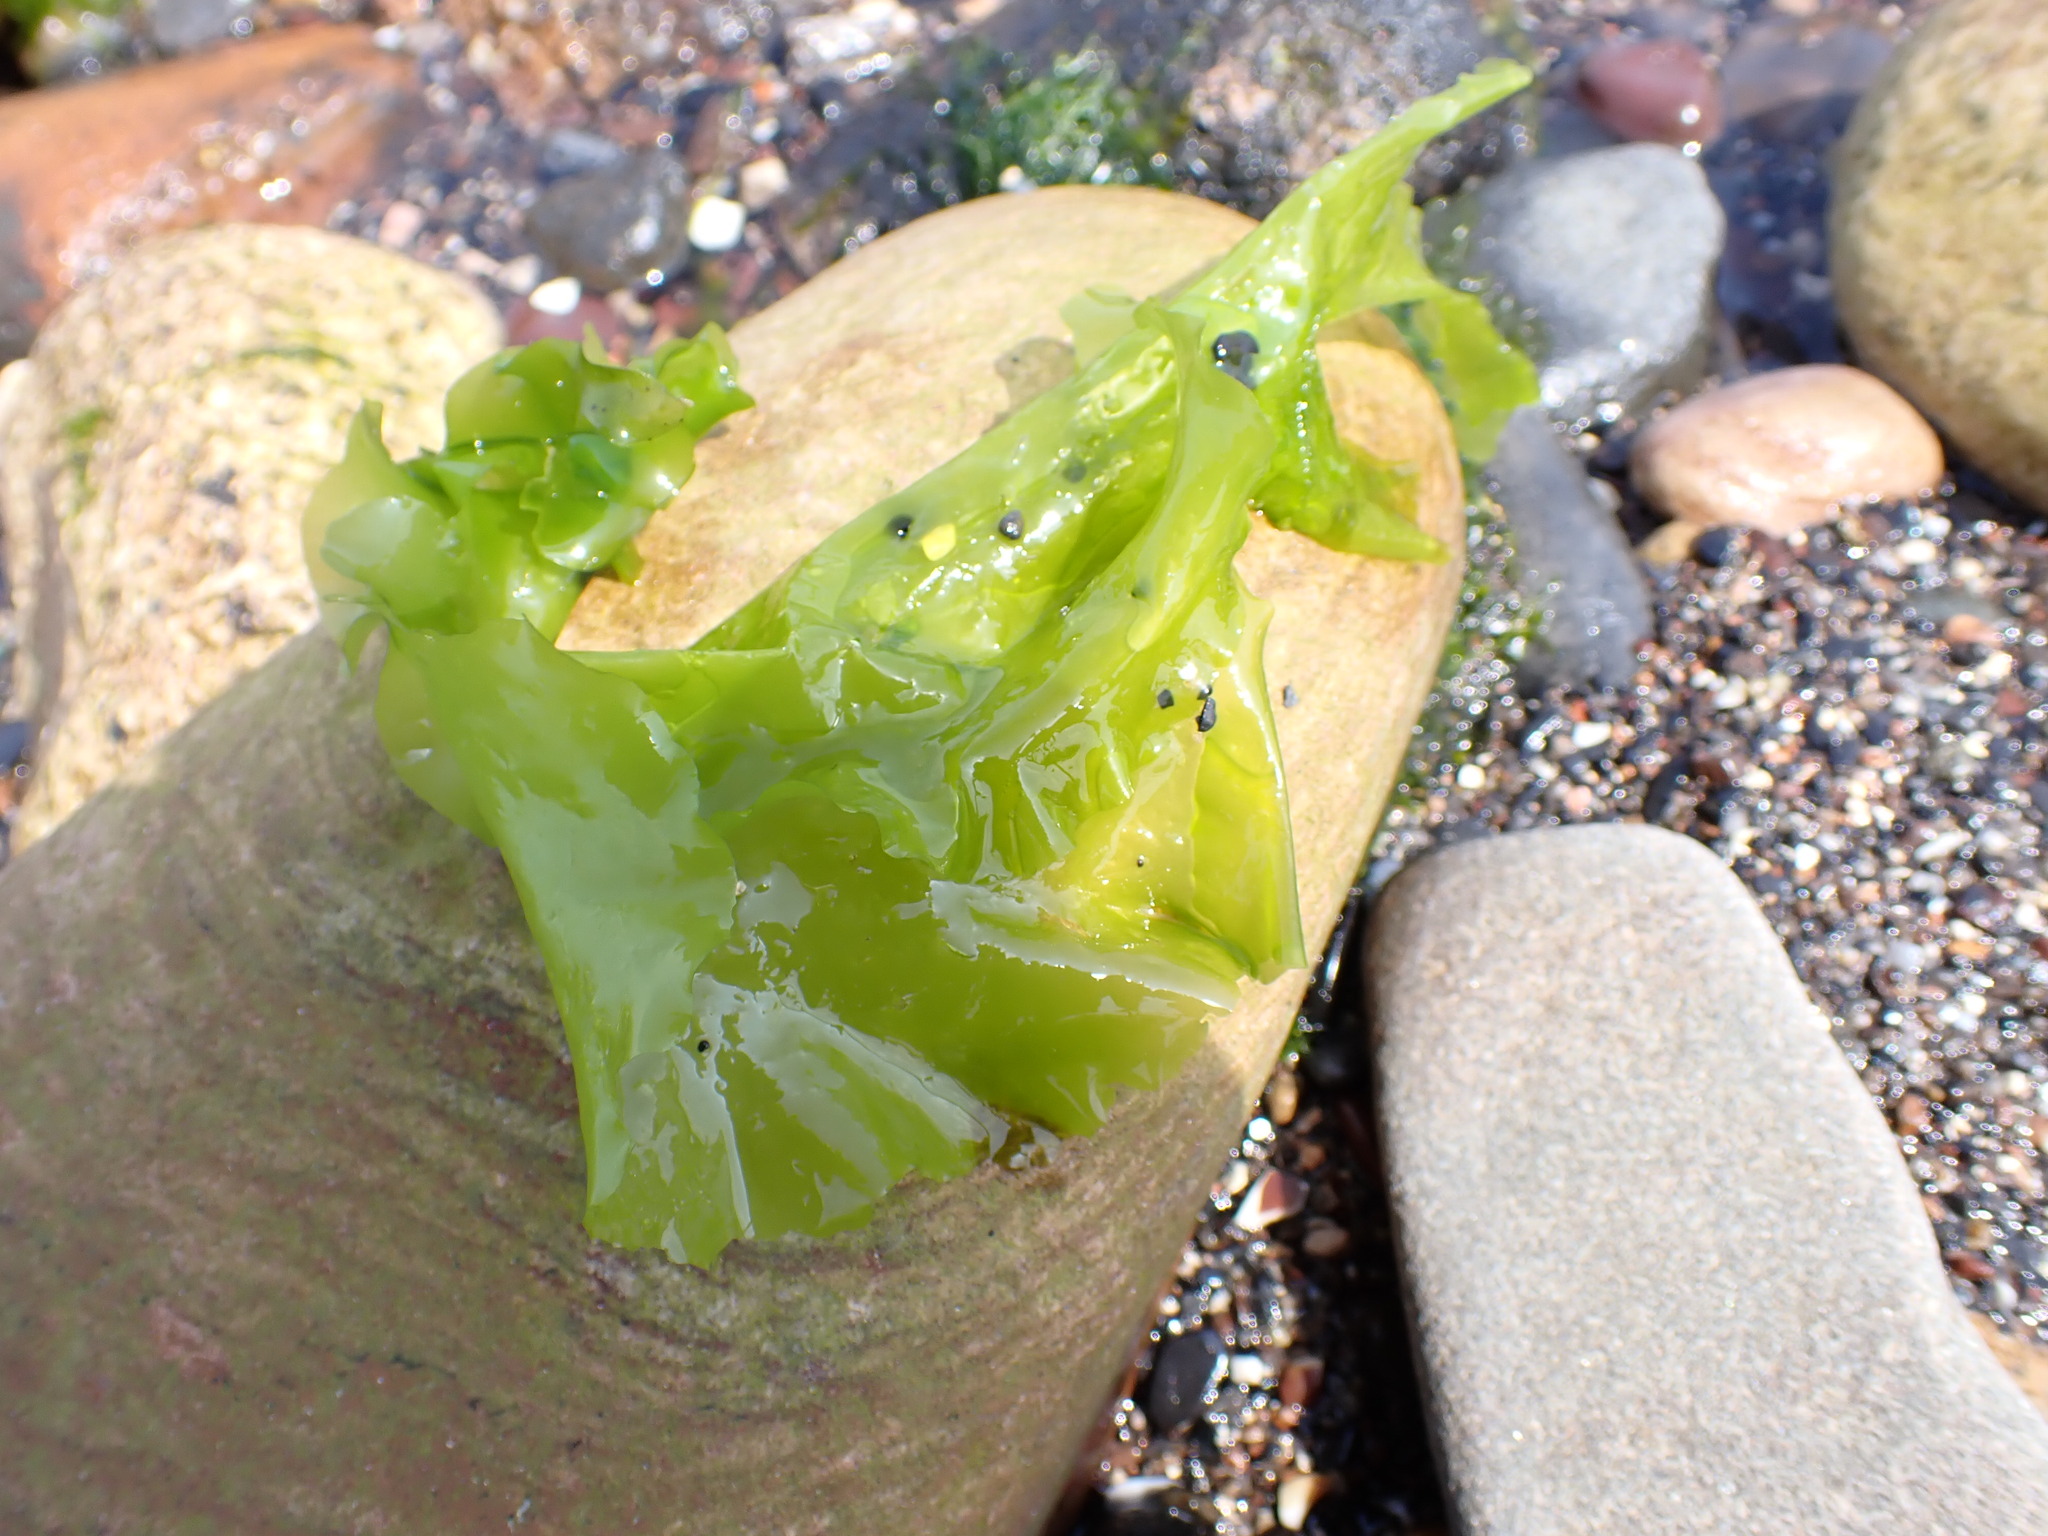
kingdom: Plantae
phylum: Chlorophyta
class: Ulvophyceae
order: Ulvales
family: Ulvaceae
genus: Ulva
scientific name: Ulva lactuca
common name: Sea lettuce
